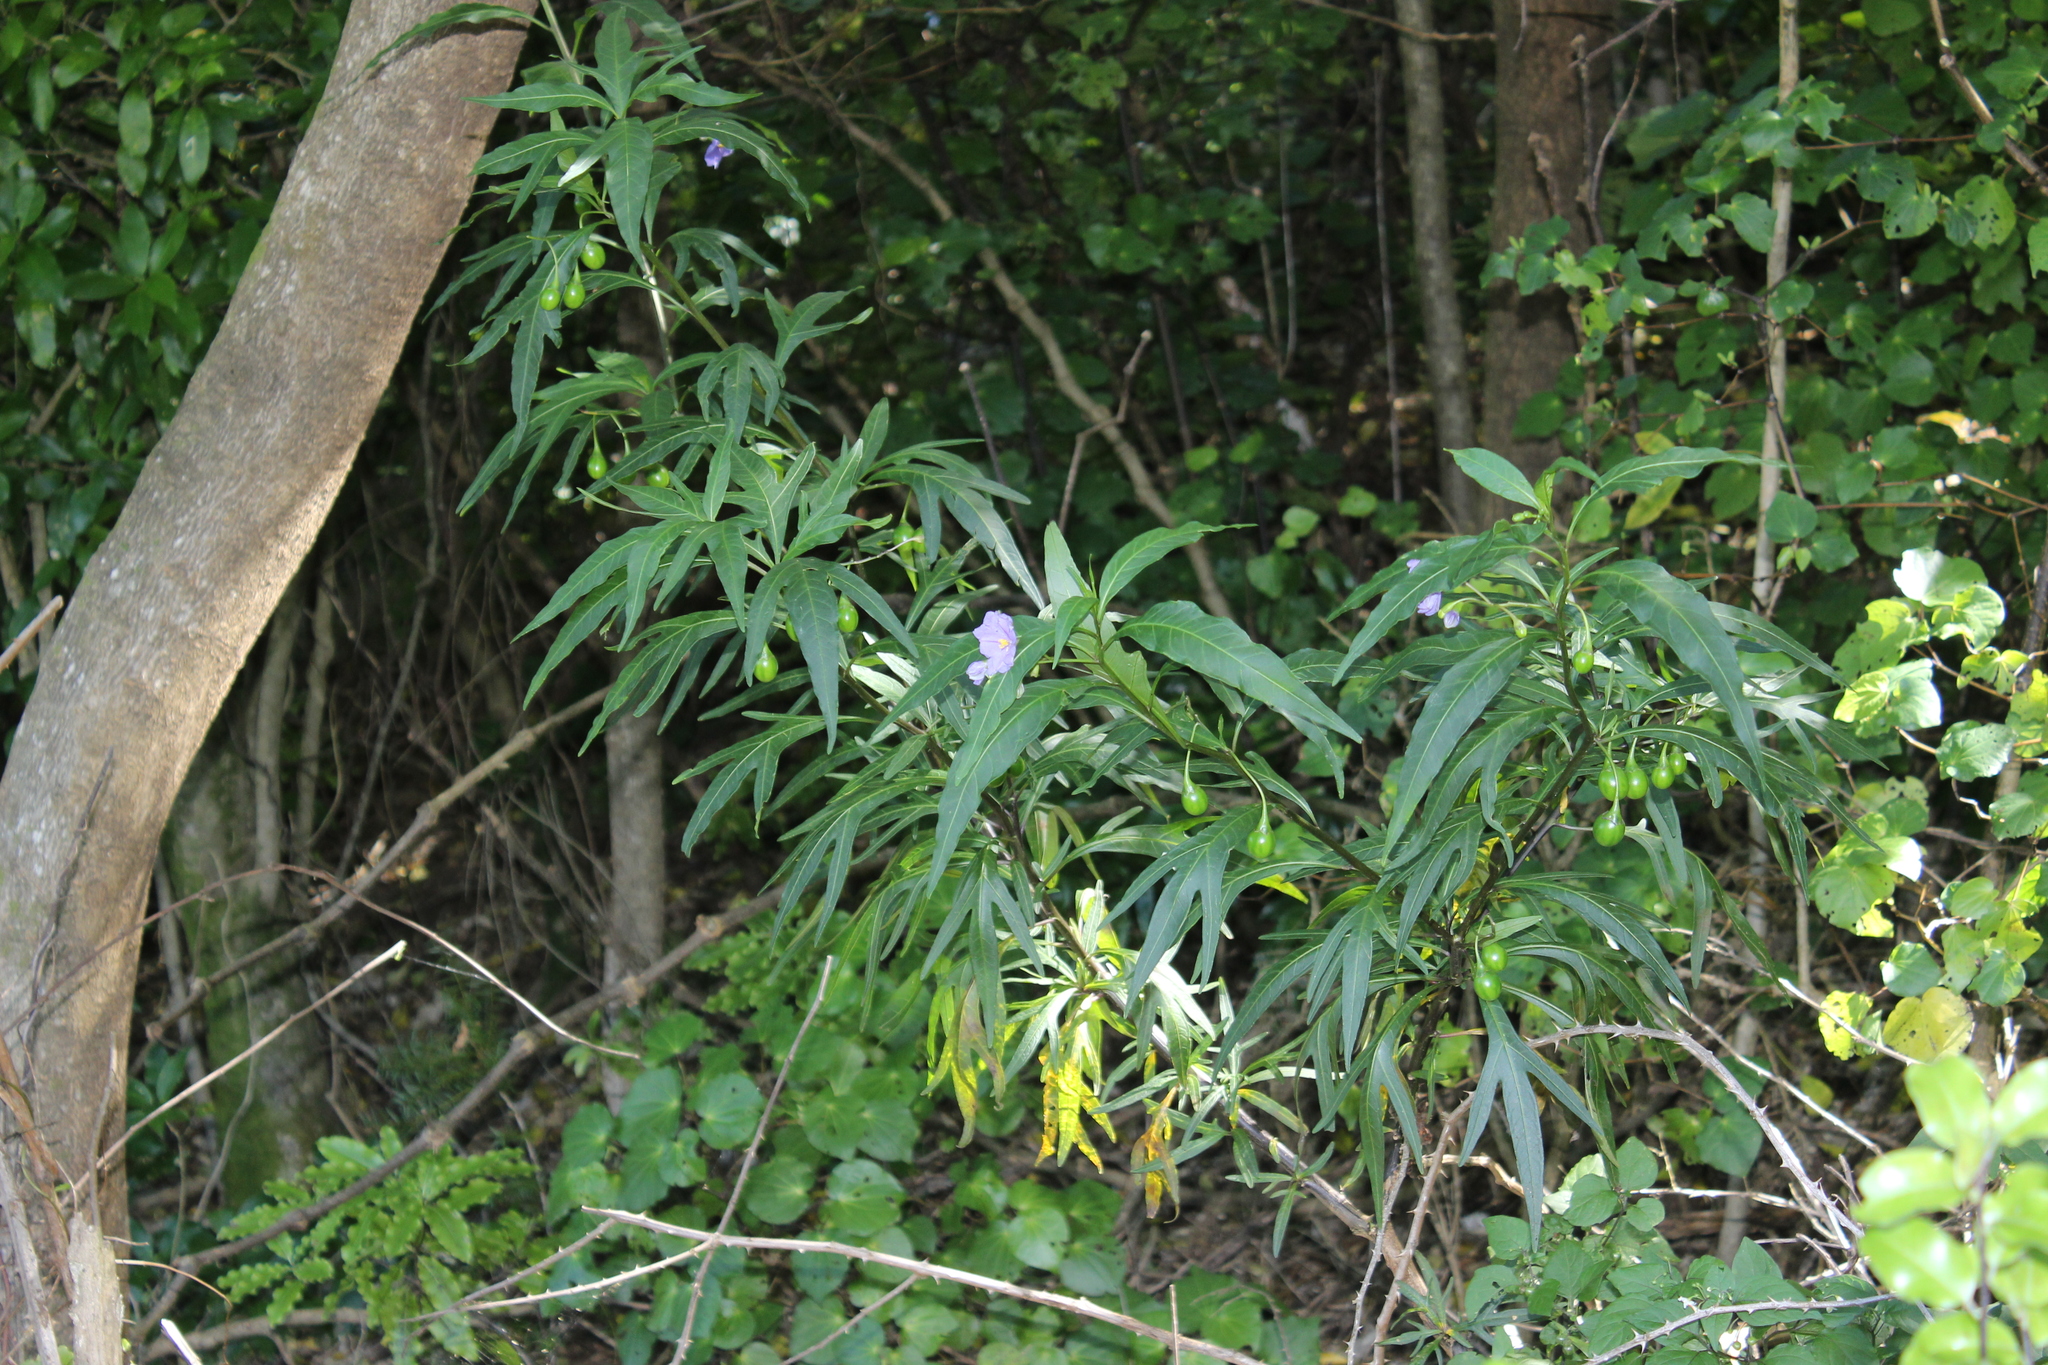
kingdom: Plantae
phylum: Tracheophyta
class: Magnoliopsida
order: Solanales
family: Solanaceae
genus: Solanum
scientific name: Solanum laciniatum
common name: Kangaroo-apple
